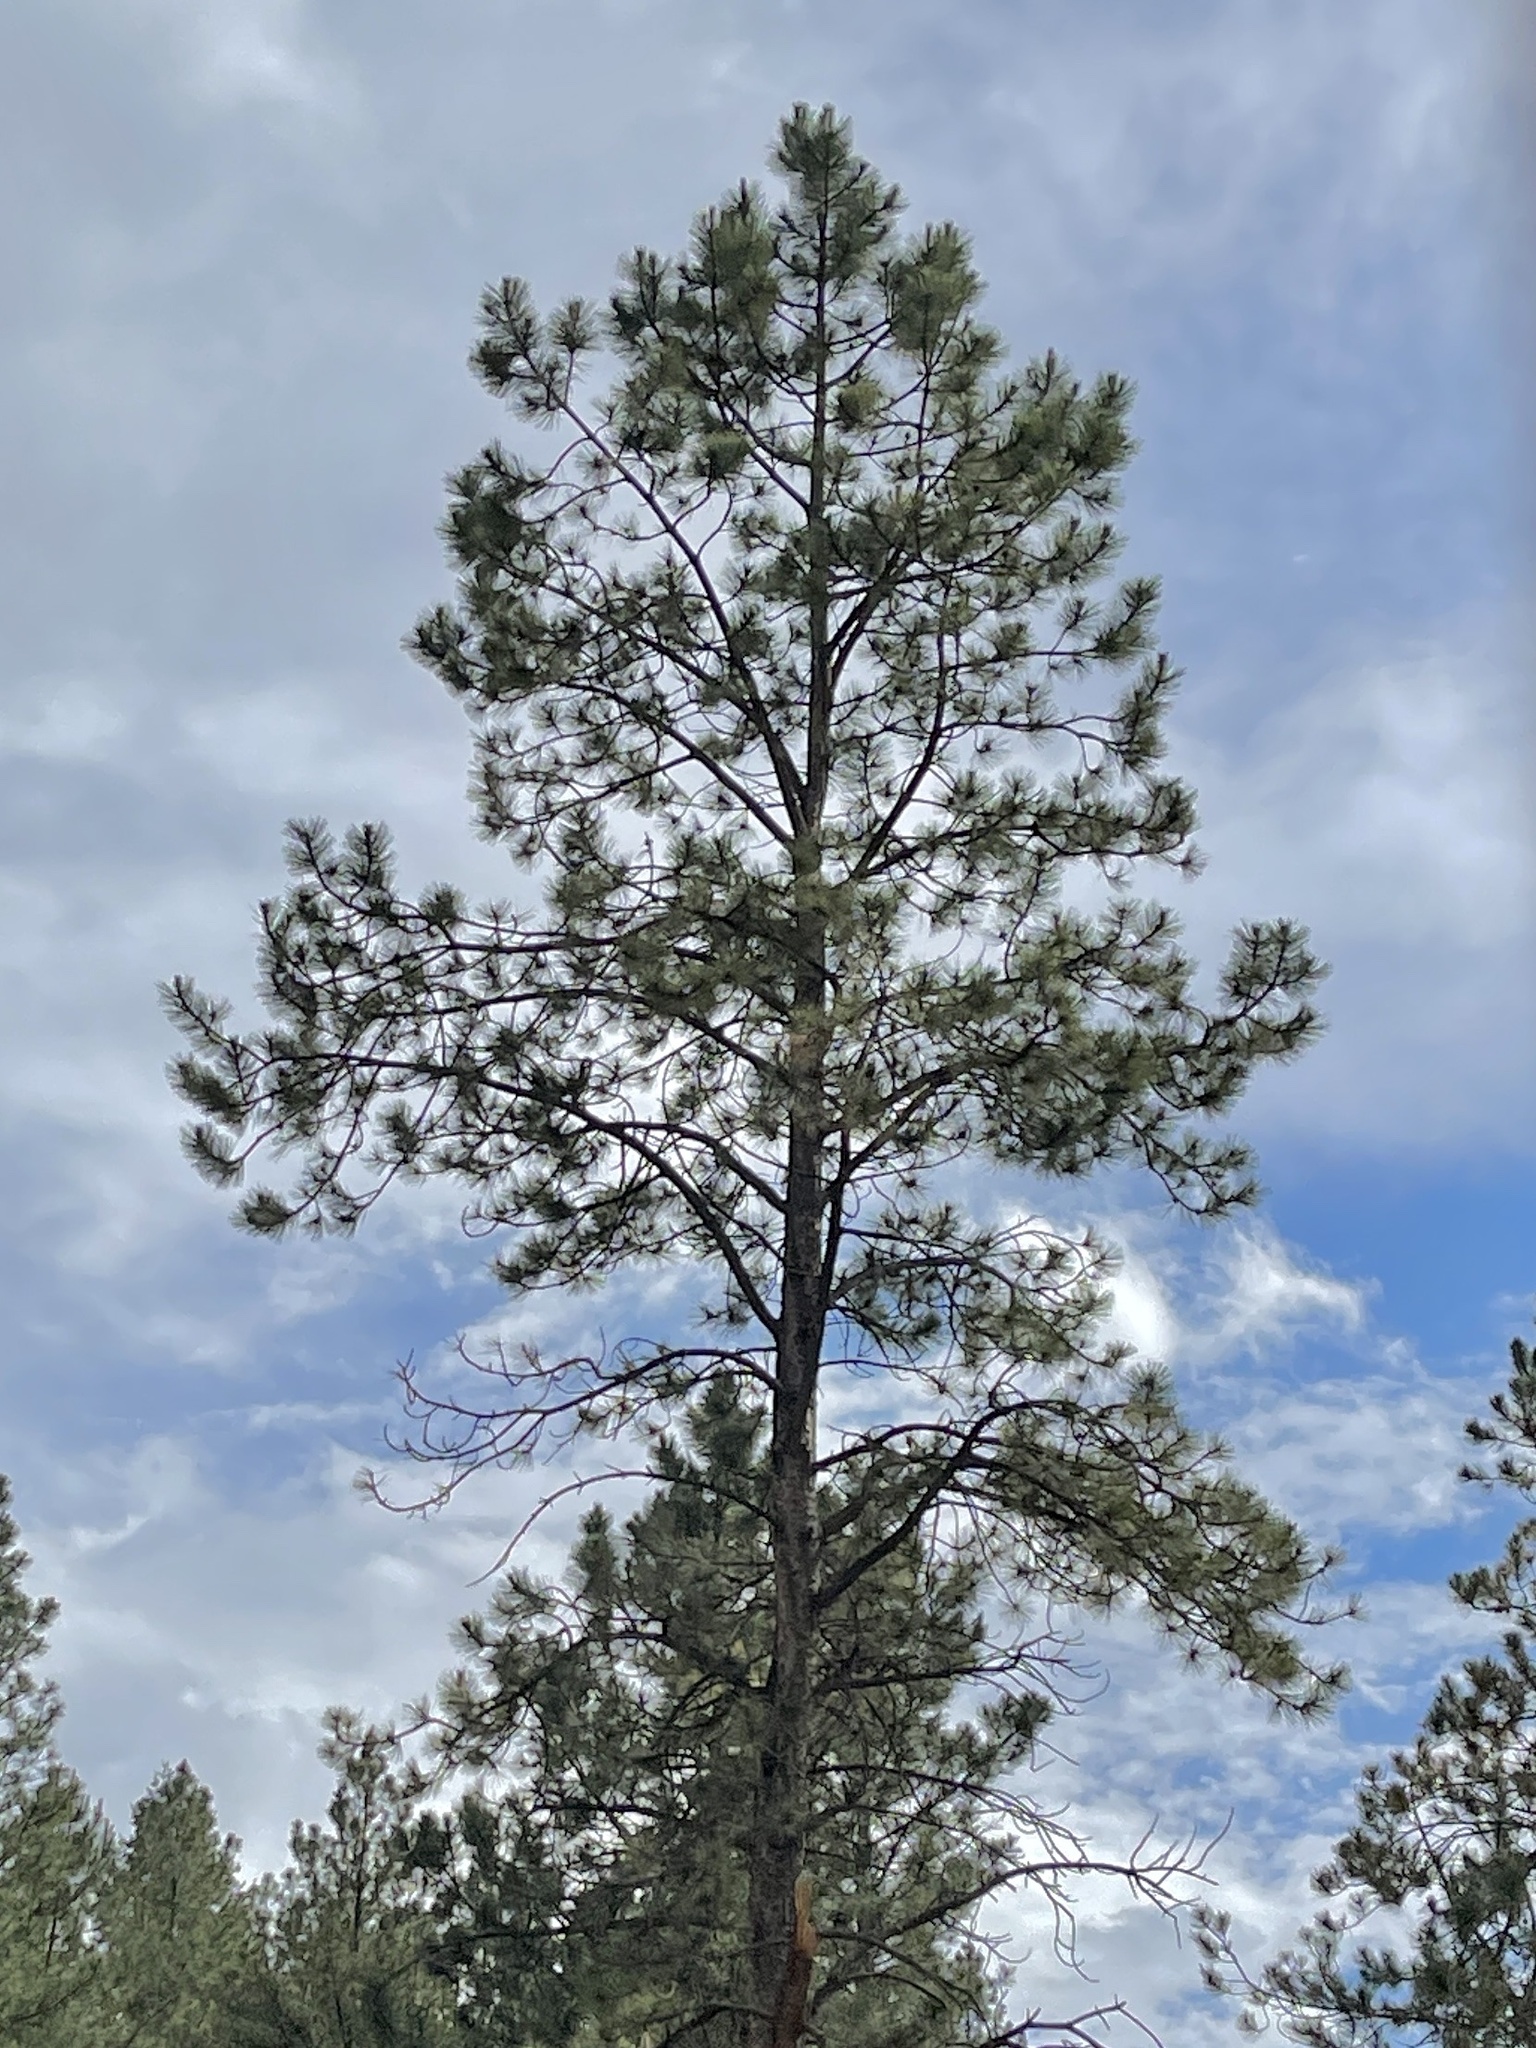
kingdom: Plantae
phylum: Tracheophyta
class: Pinopsida
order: Pinales
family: Pinaceae
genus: Pinus
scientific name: Pinus ponderosa
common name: Western yellow-pine
